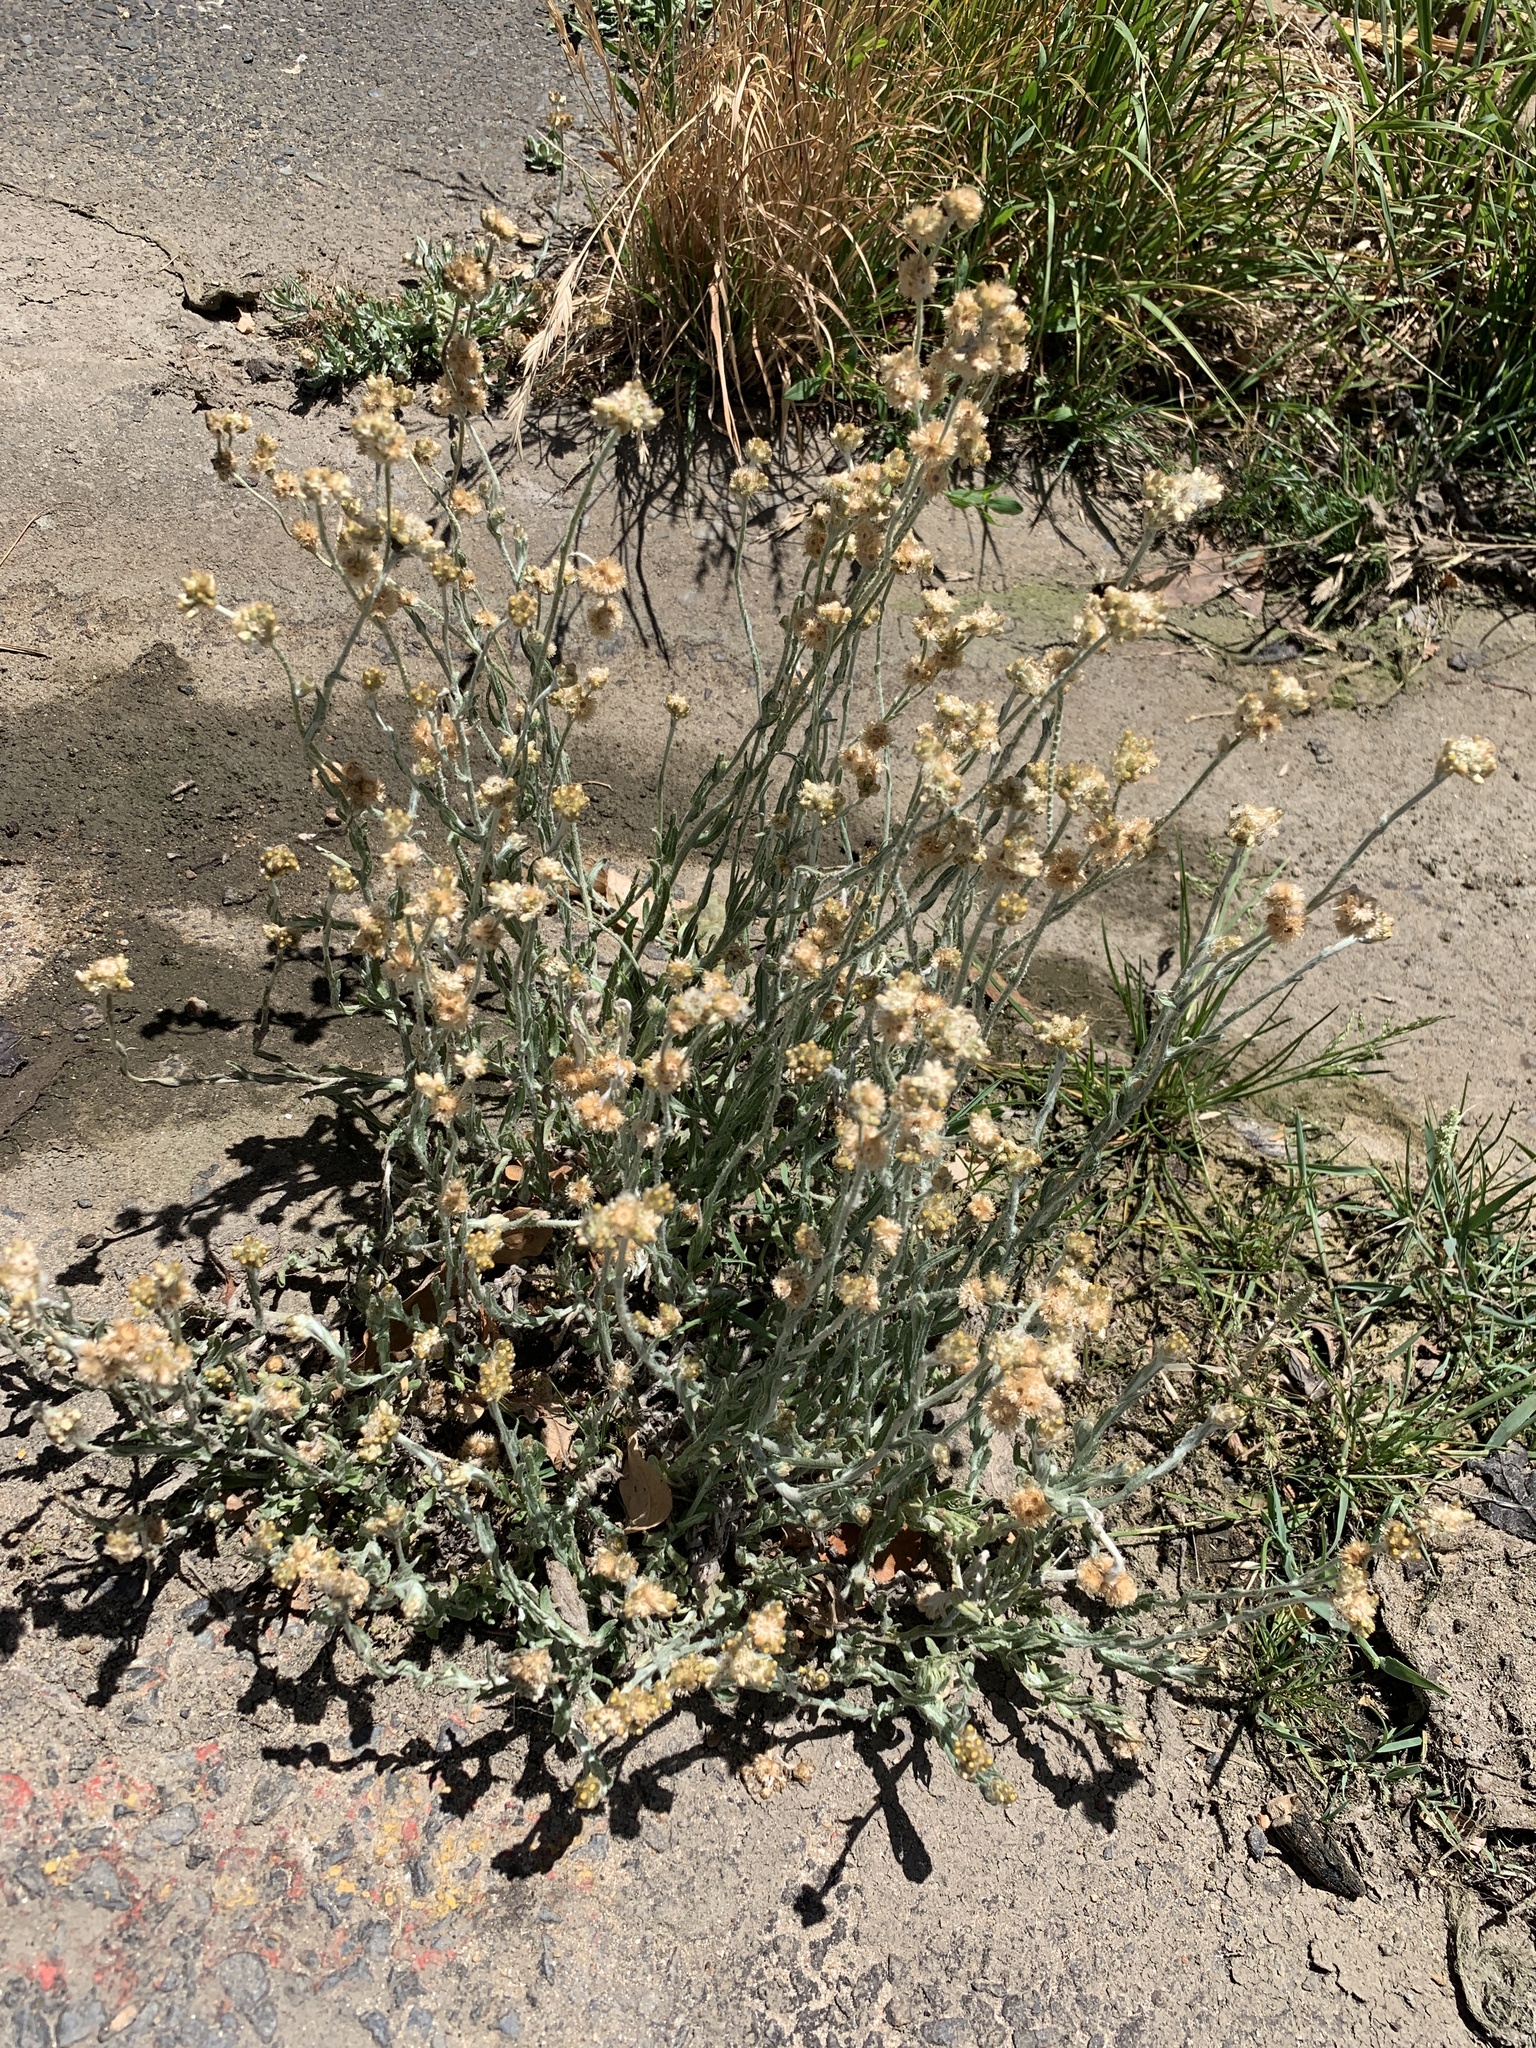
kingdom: Plantae
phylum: Tracheophyta
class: Magnoliopsida
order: Asterales
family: Asteraceae
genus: Helichrysum
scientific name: Helichrysum luteoalbum
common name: Daisy
